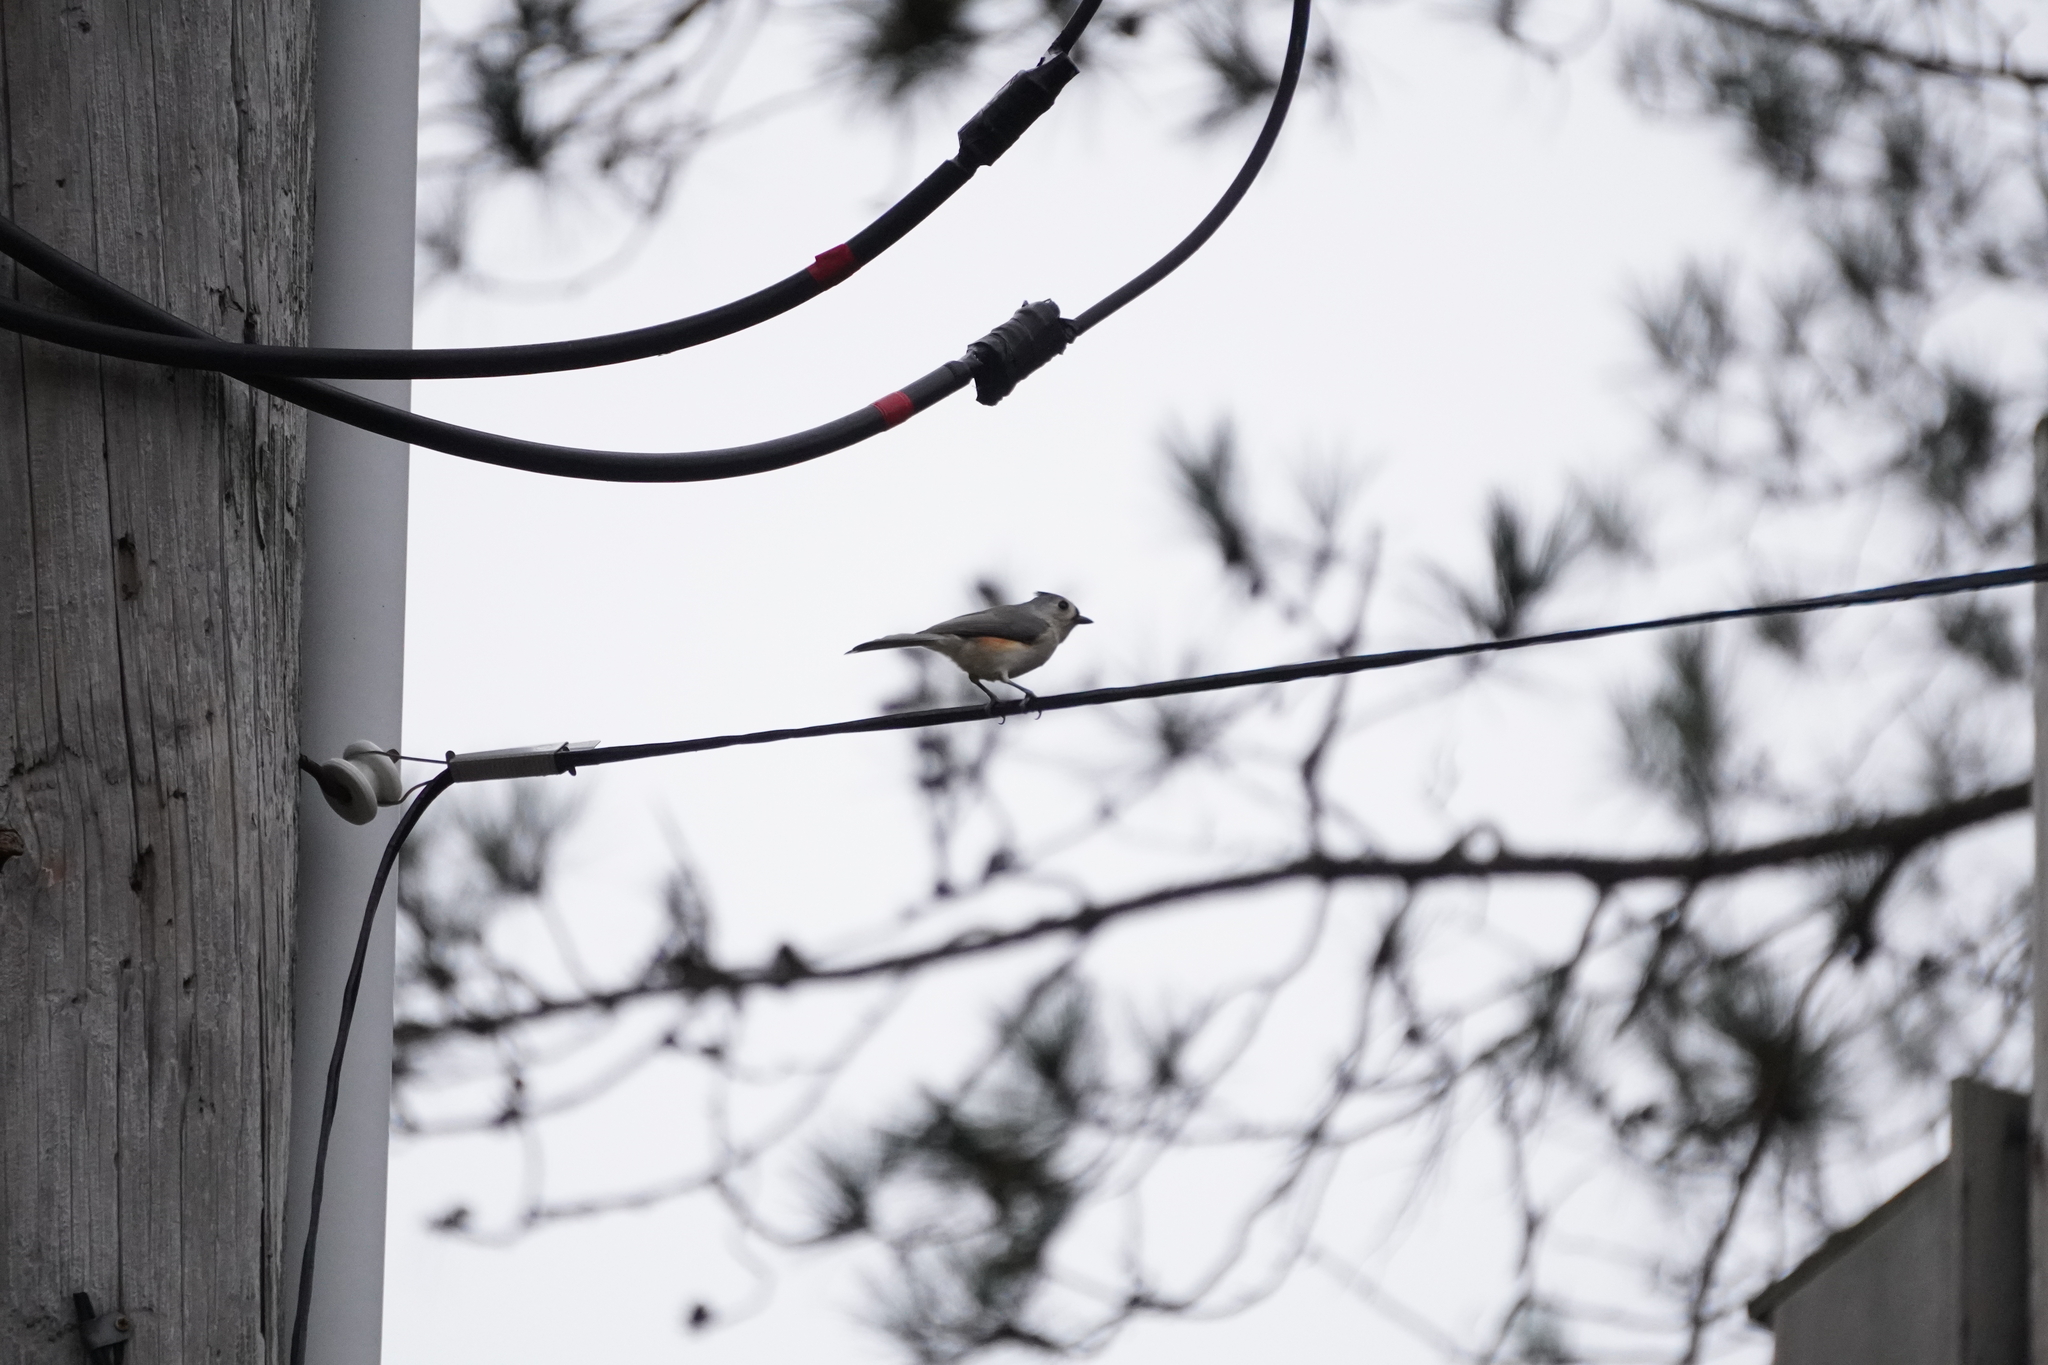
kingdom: Animalia
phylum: Chordata
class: Aves
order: Passeriformes
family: Paridae
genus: Baeolophus
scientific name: Baeolophus bicolor
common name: Tufted titmouse
